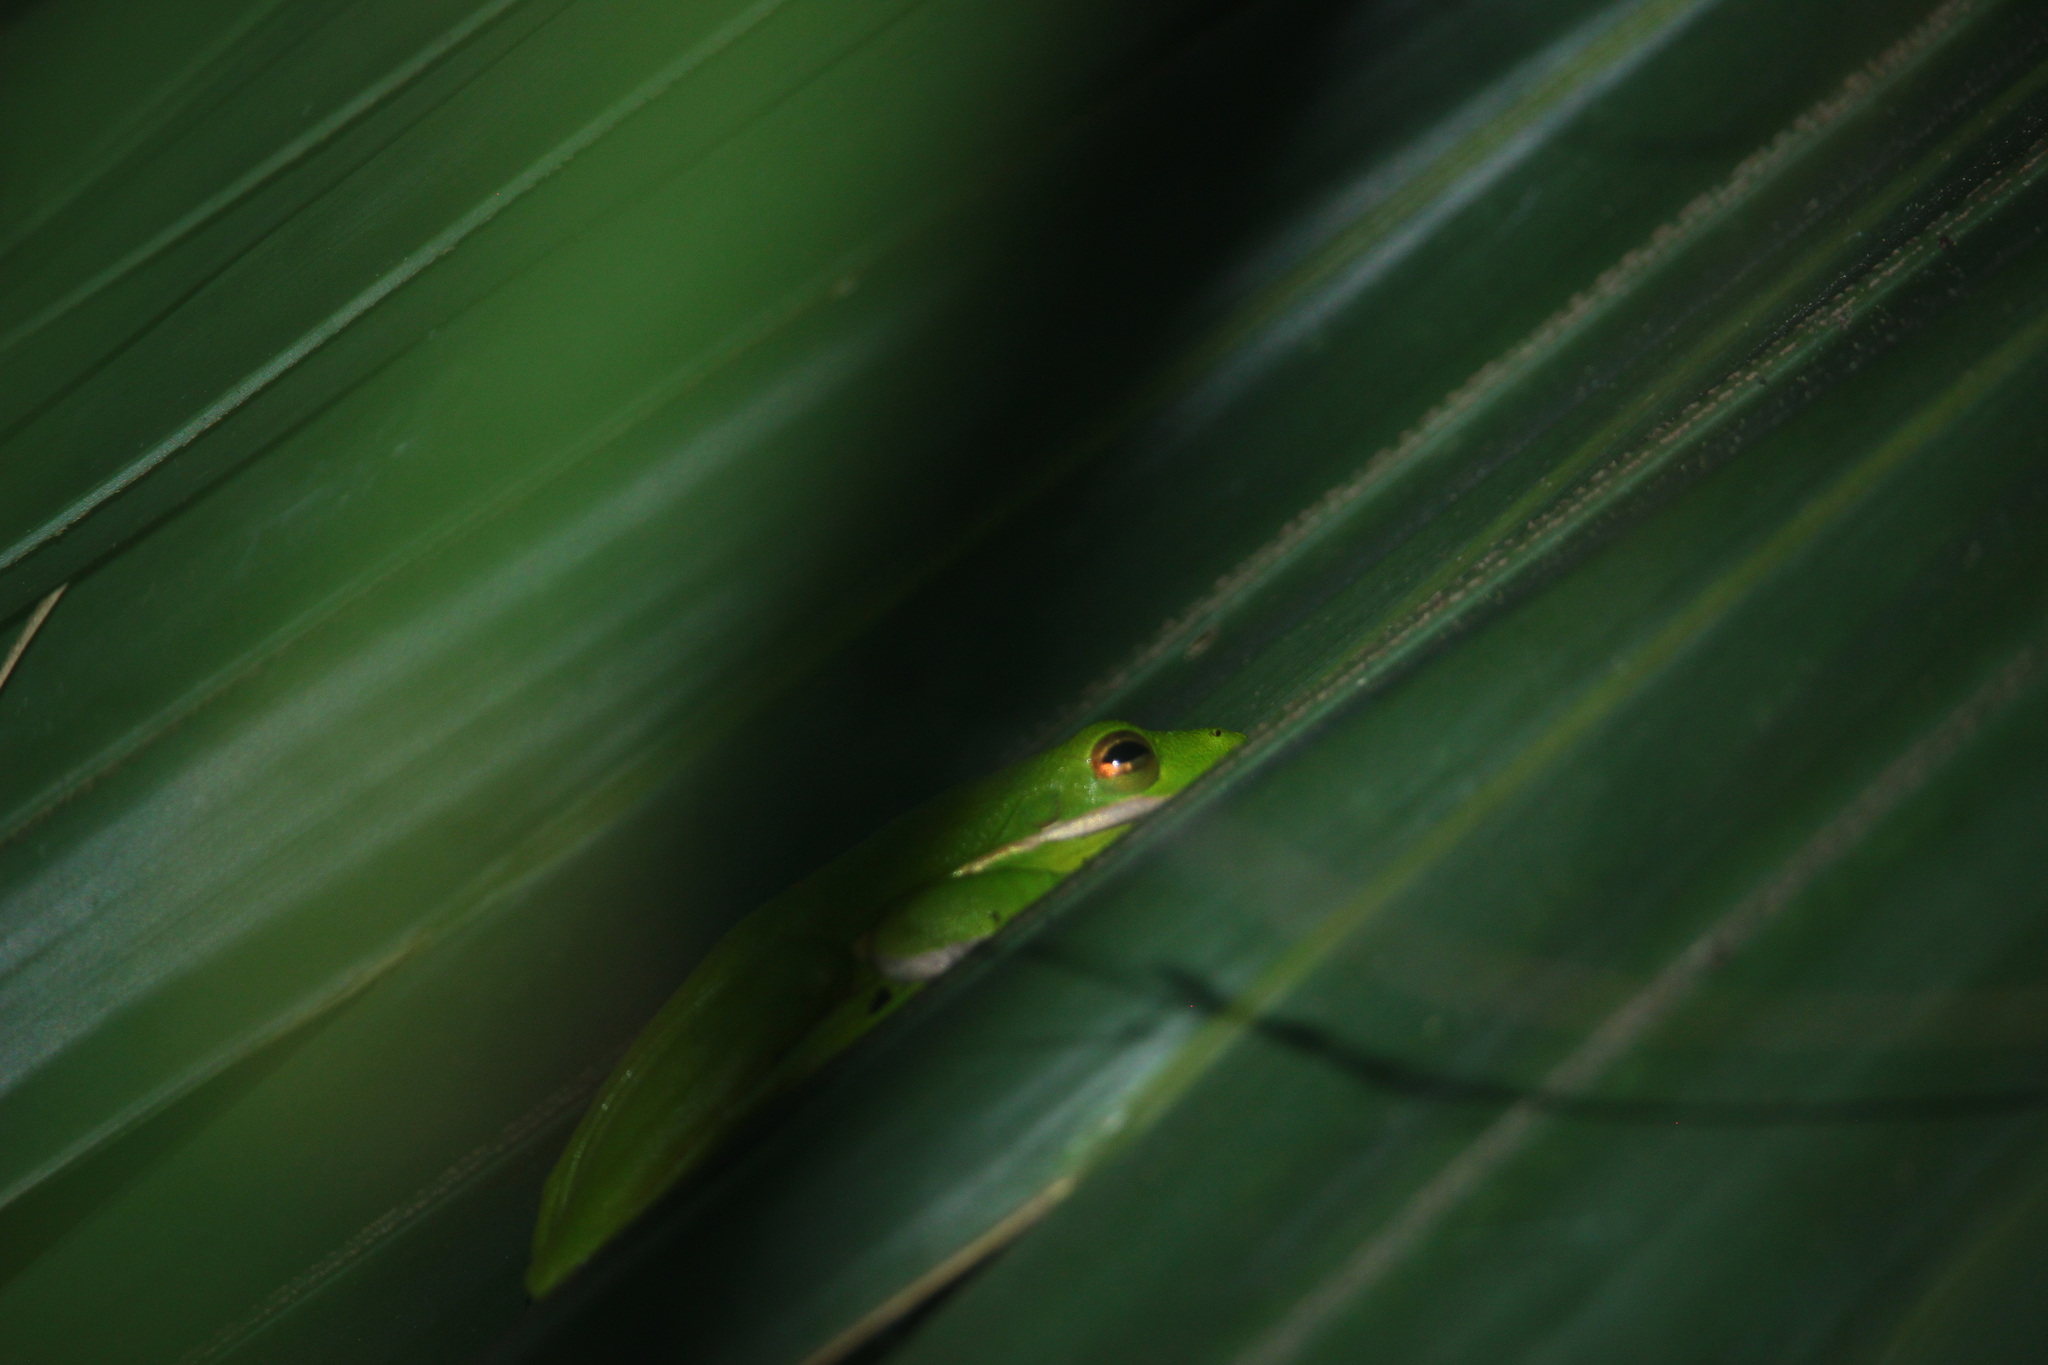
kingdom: Animalia
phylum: Chordata
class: Amphibia
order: Anura
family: Hylidae
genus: Dryophytes
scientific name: Dryophytes cinereus
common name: Green treefrog
